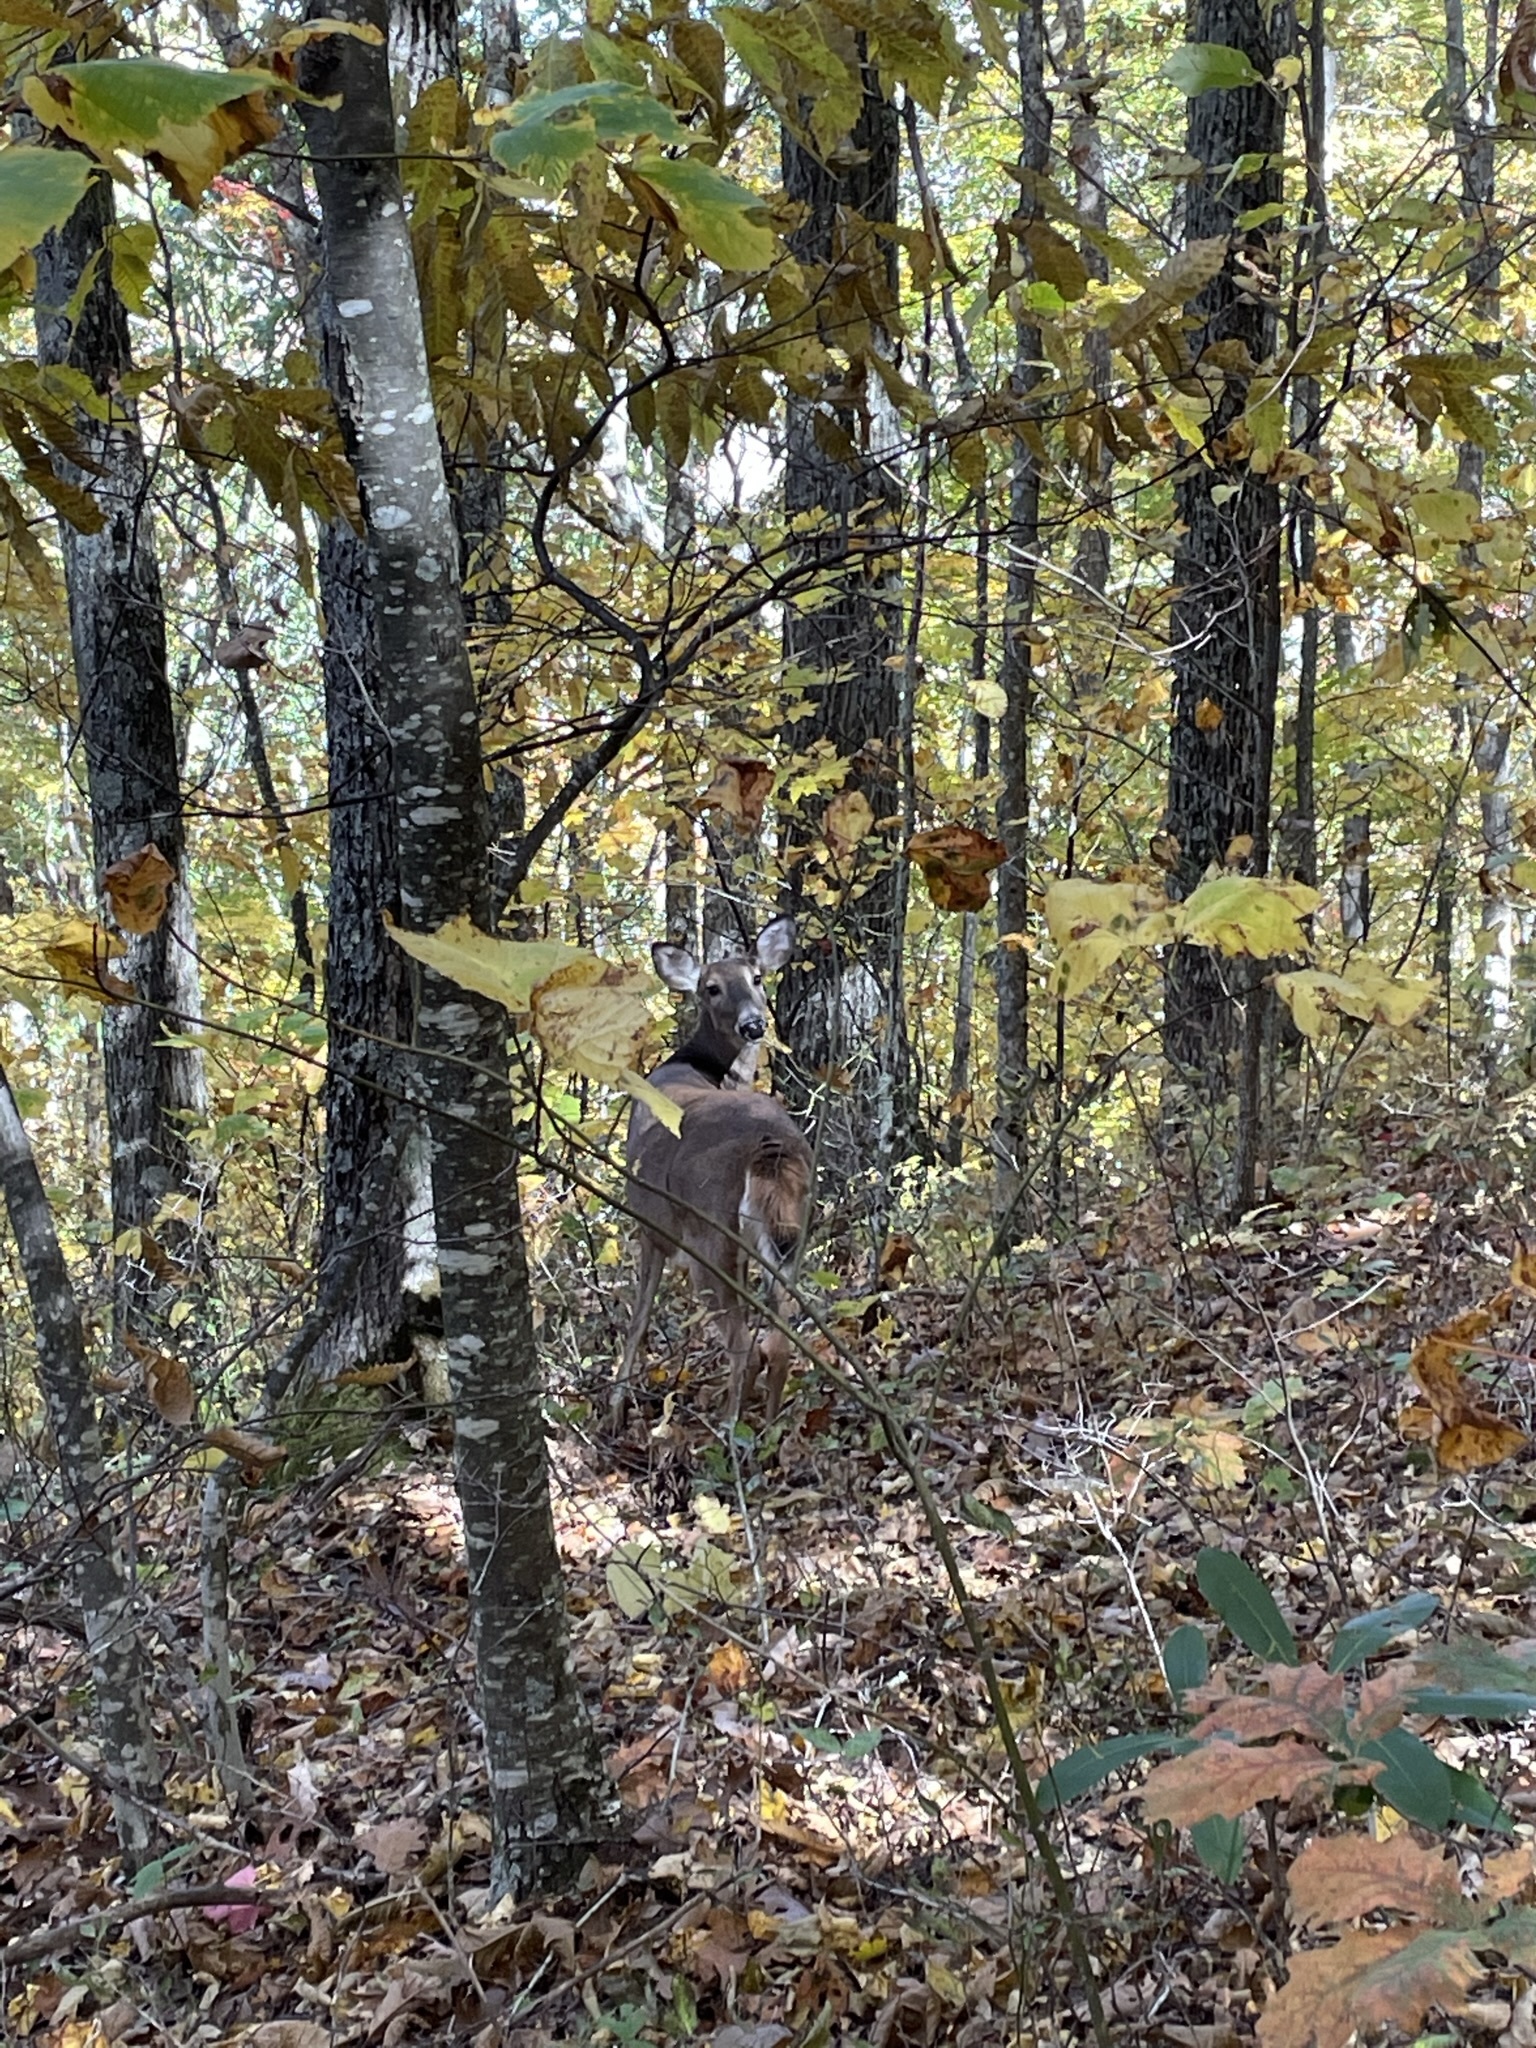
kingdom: Animalia
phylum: Chordata
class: Mammalia
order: Artiodactyla
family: Cervidae
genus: Odocoileus
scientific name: Odocoileus virginianus
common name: White-tailed deer
